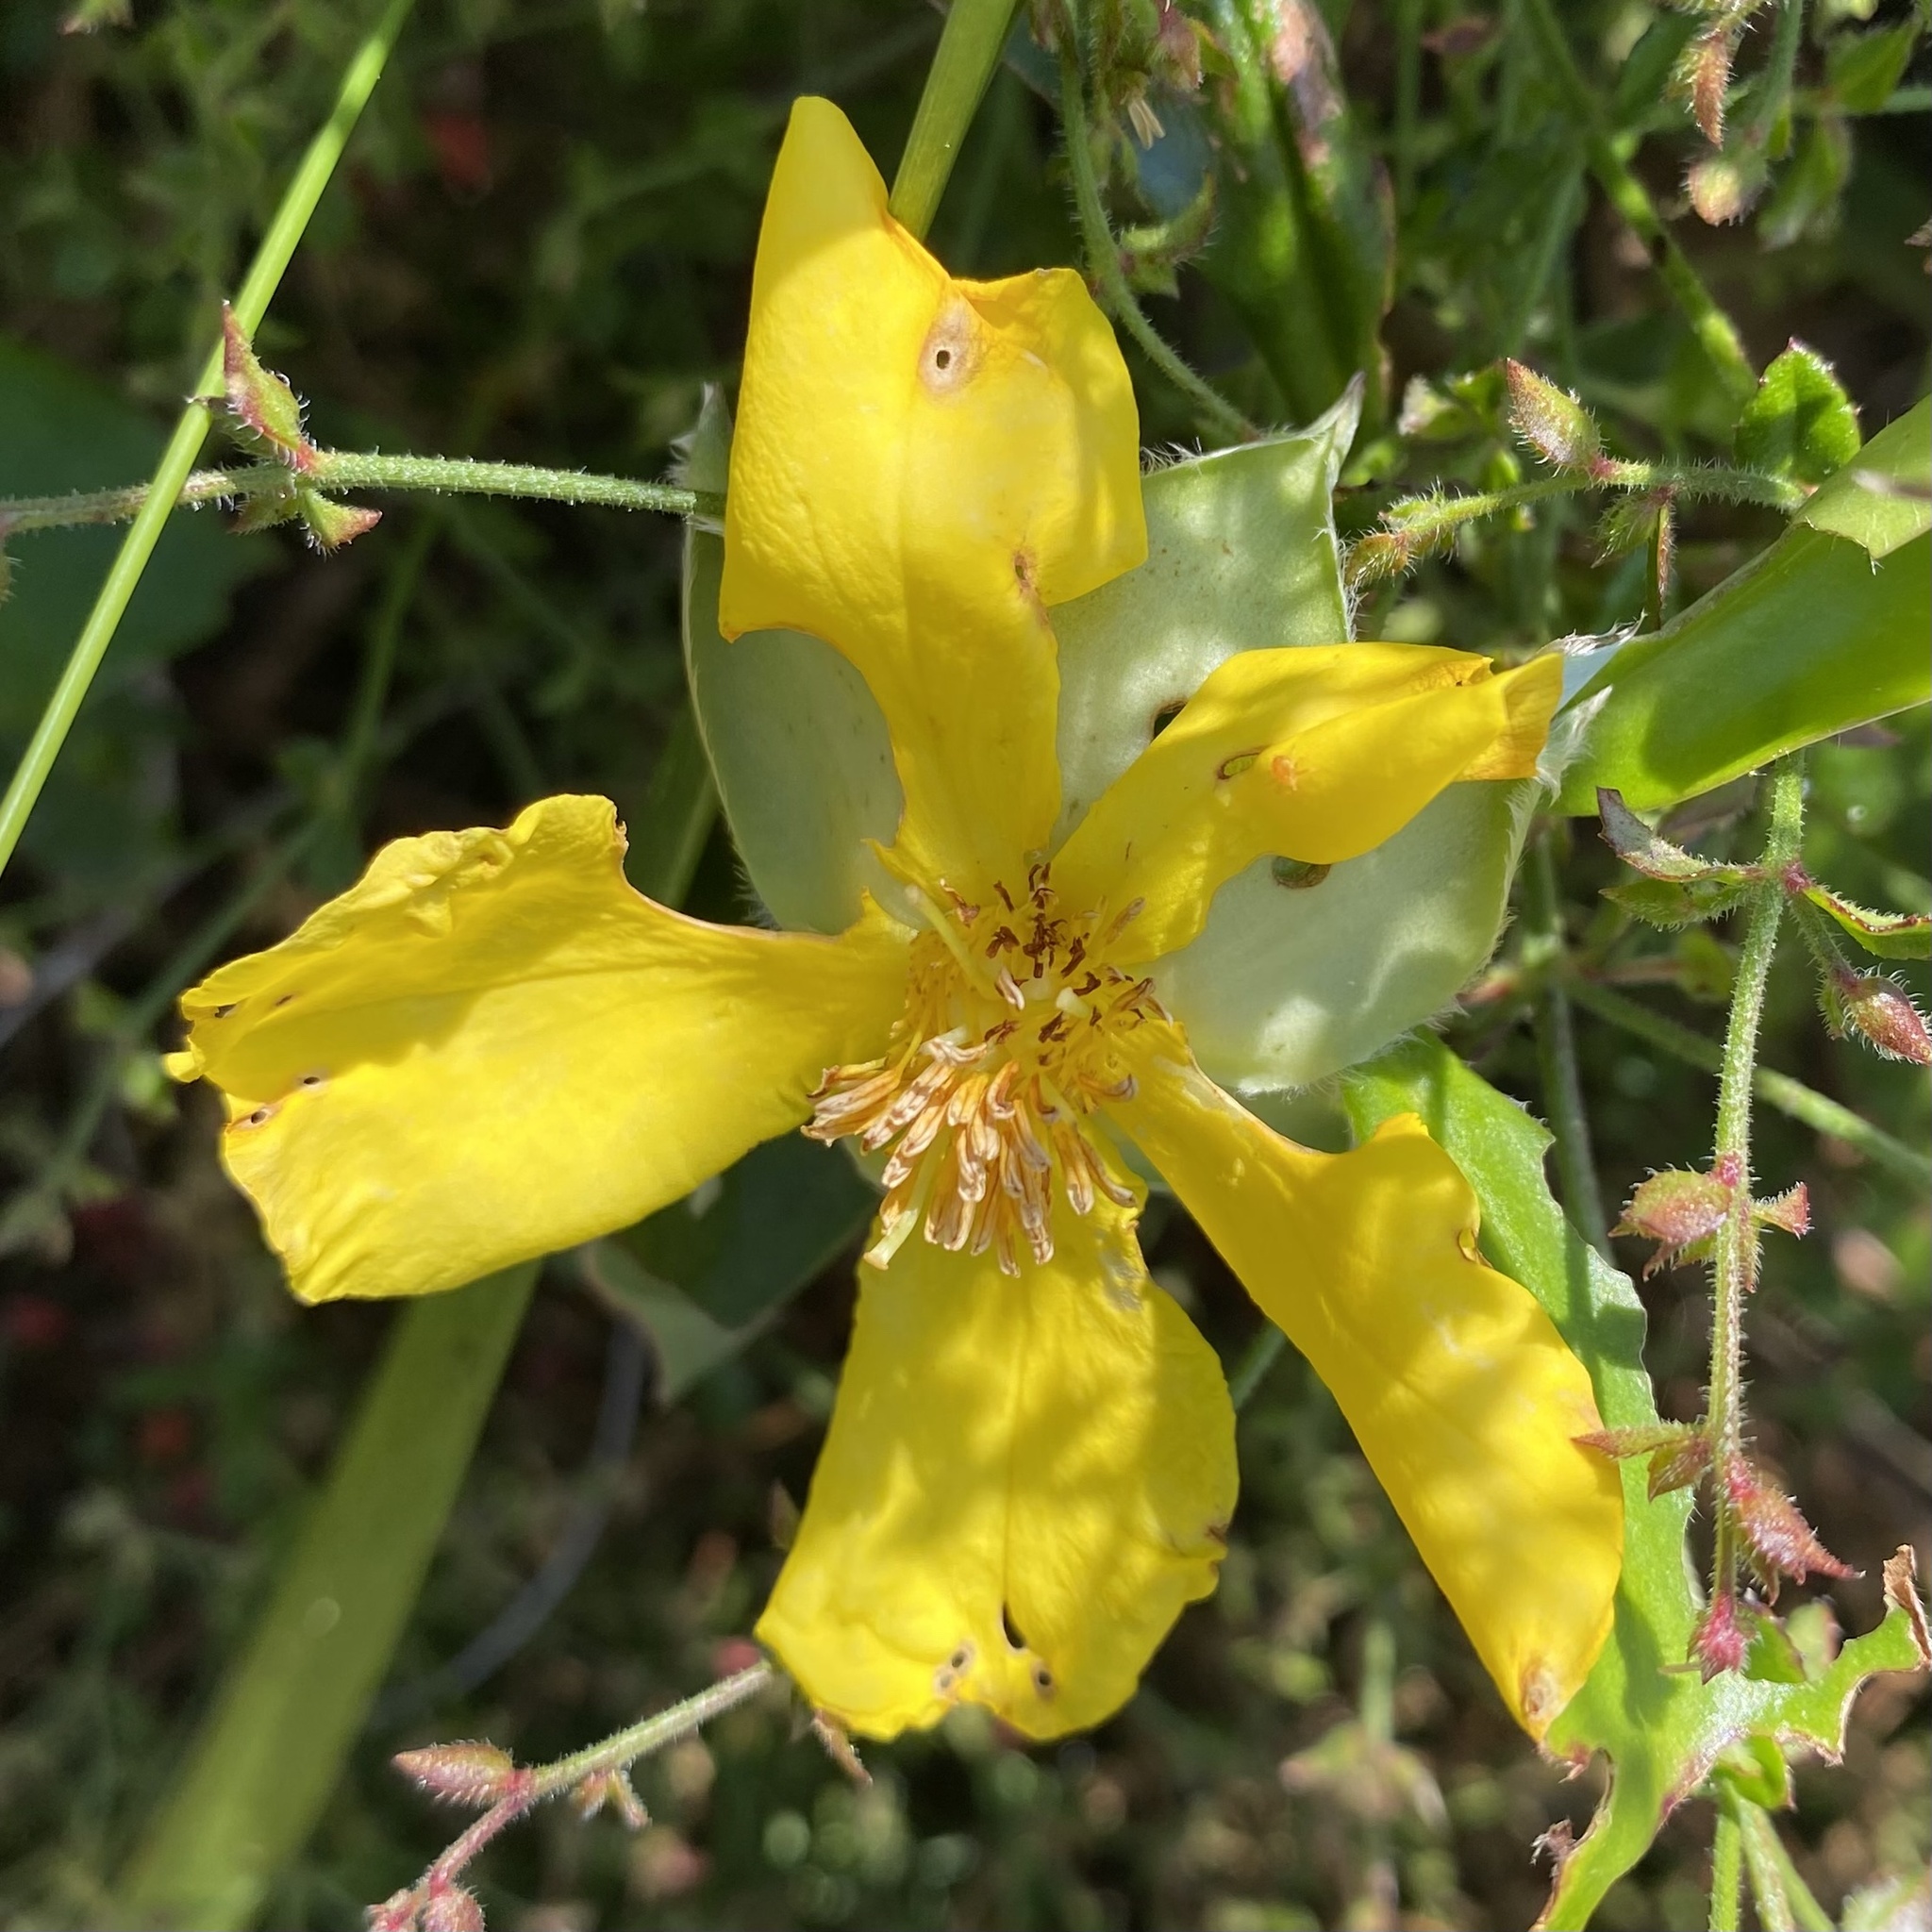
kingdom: Plantae
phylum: Tracheophyta
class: Magnoliopsida
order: Dilleniales
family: Dilleniaceae
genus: Hibbertia
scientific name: Hibbertia scandens
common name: Climbing guinea-flower
